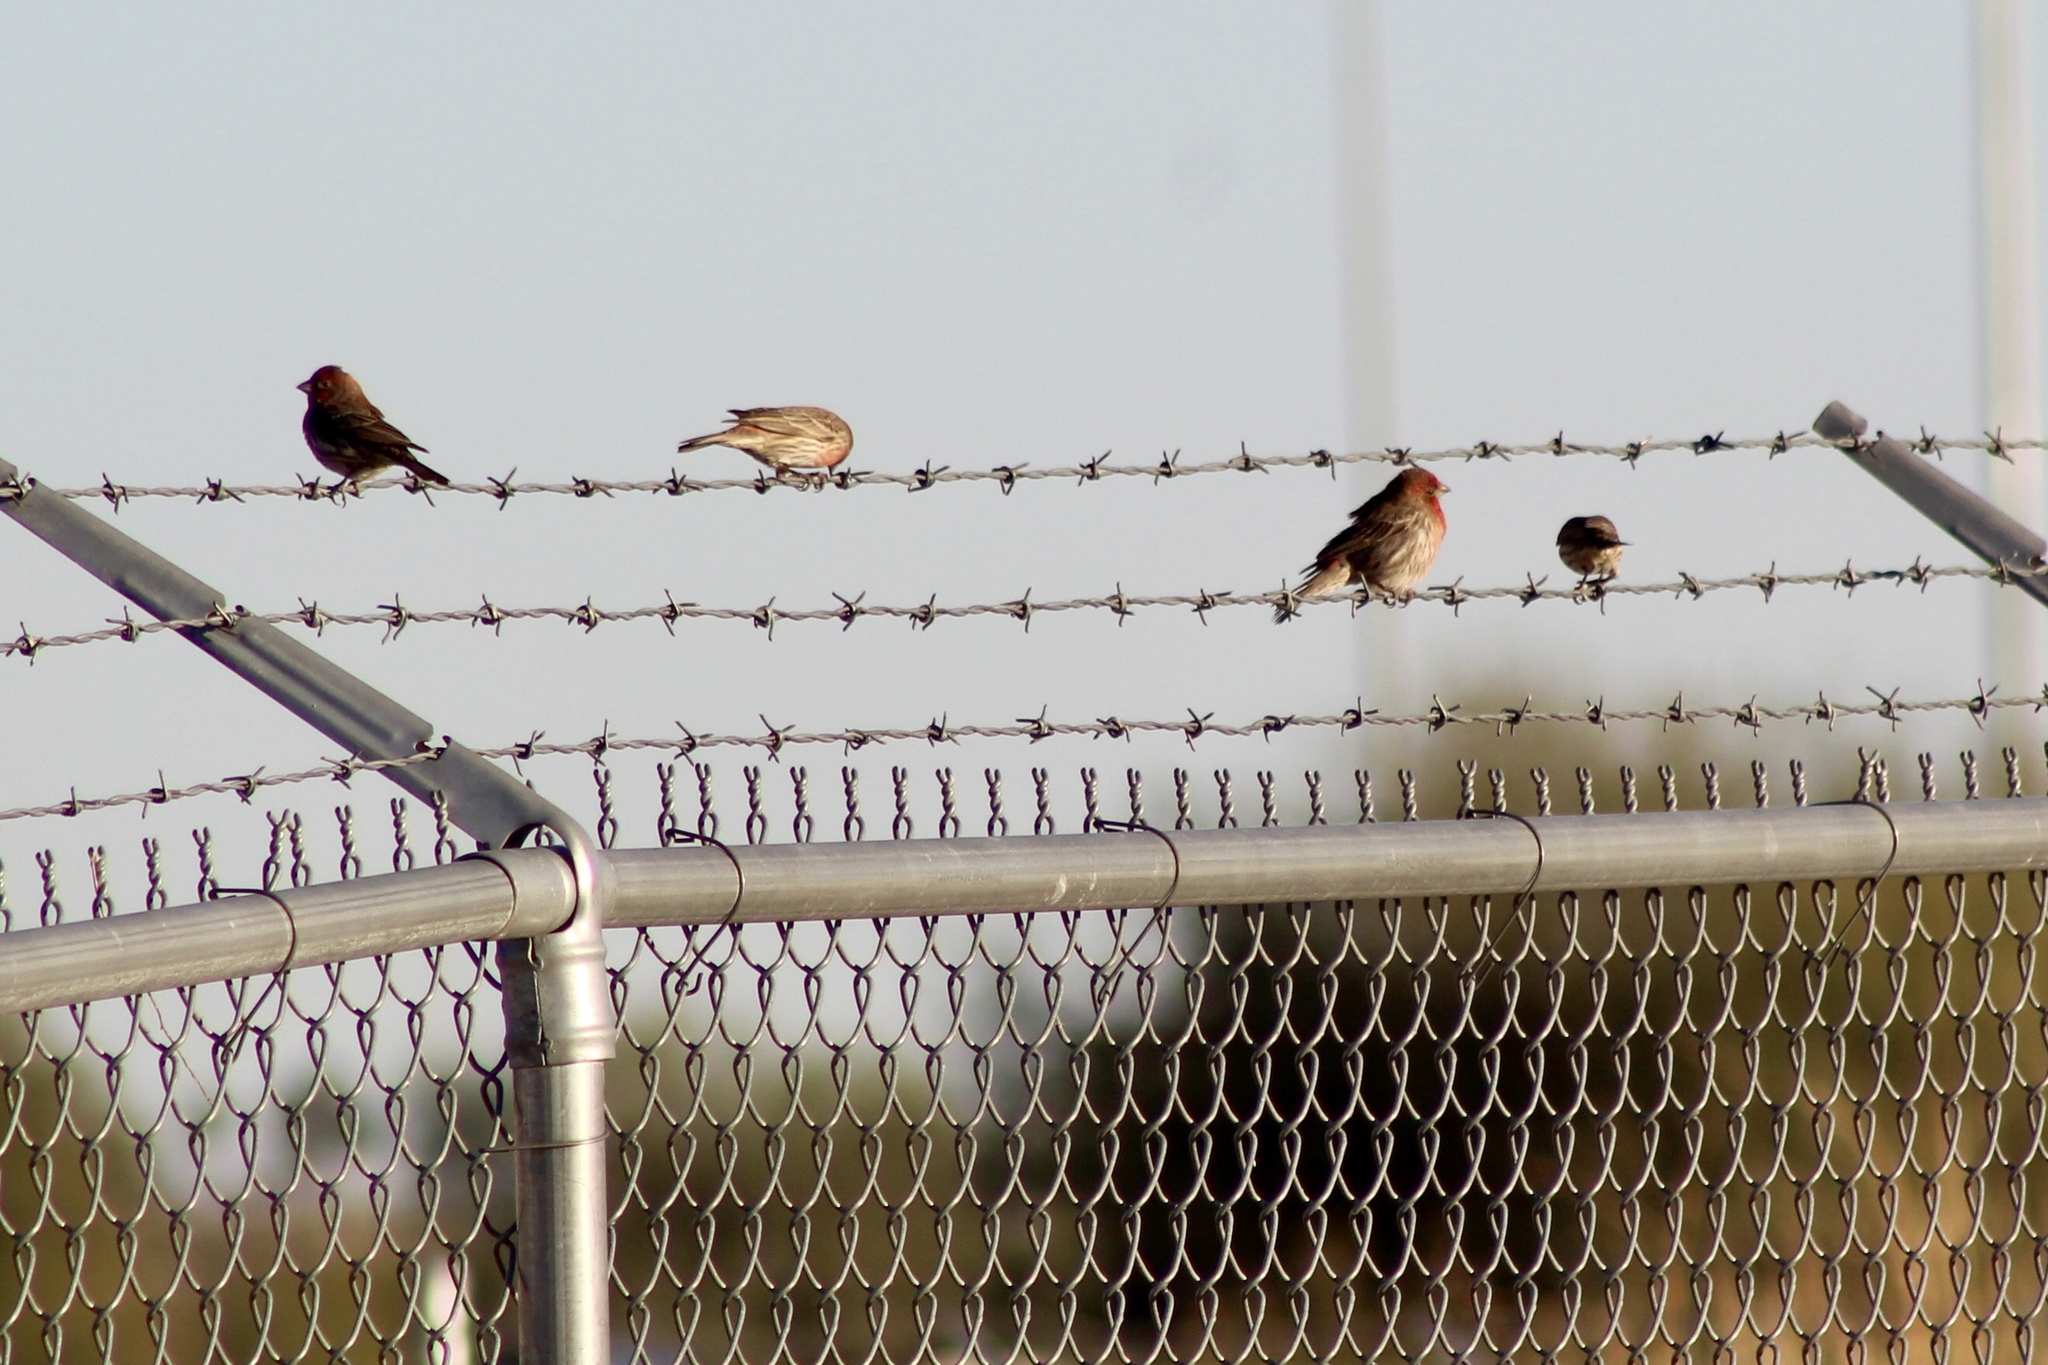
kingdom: Animalia
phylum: Chordata
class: Aves
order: Passeriformes
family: Fringillidae
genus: Haemorhous
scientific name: Haemorhous mexicanus
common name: House finch
